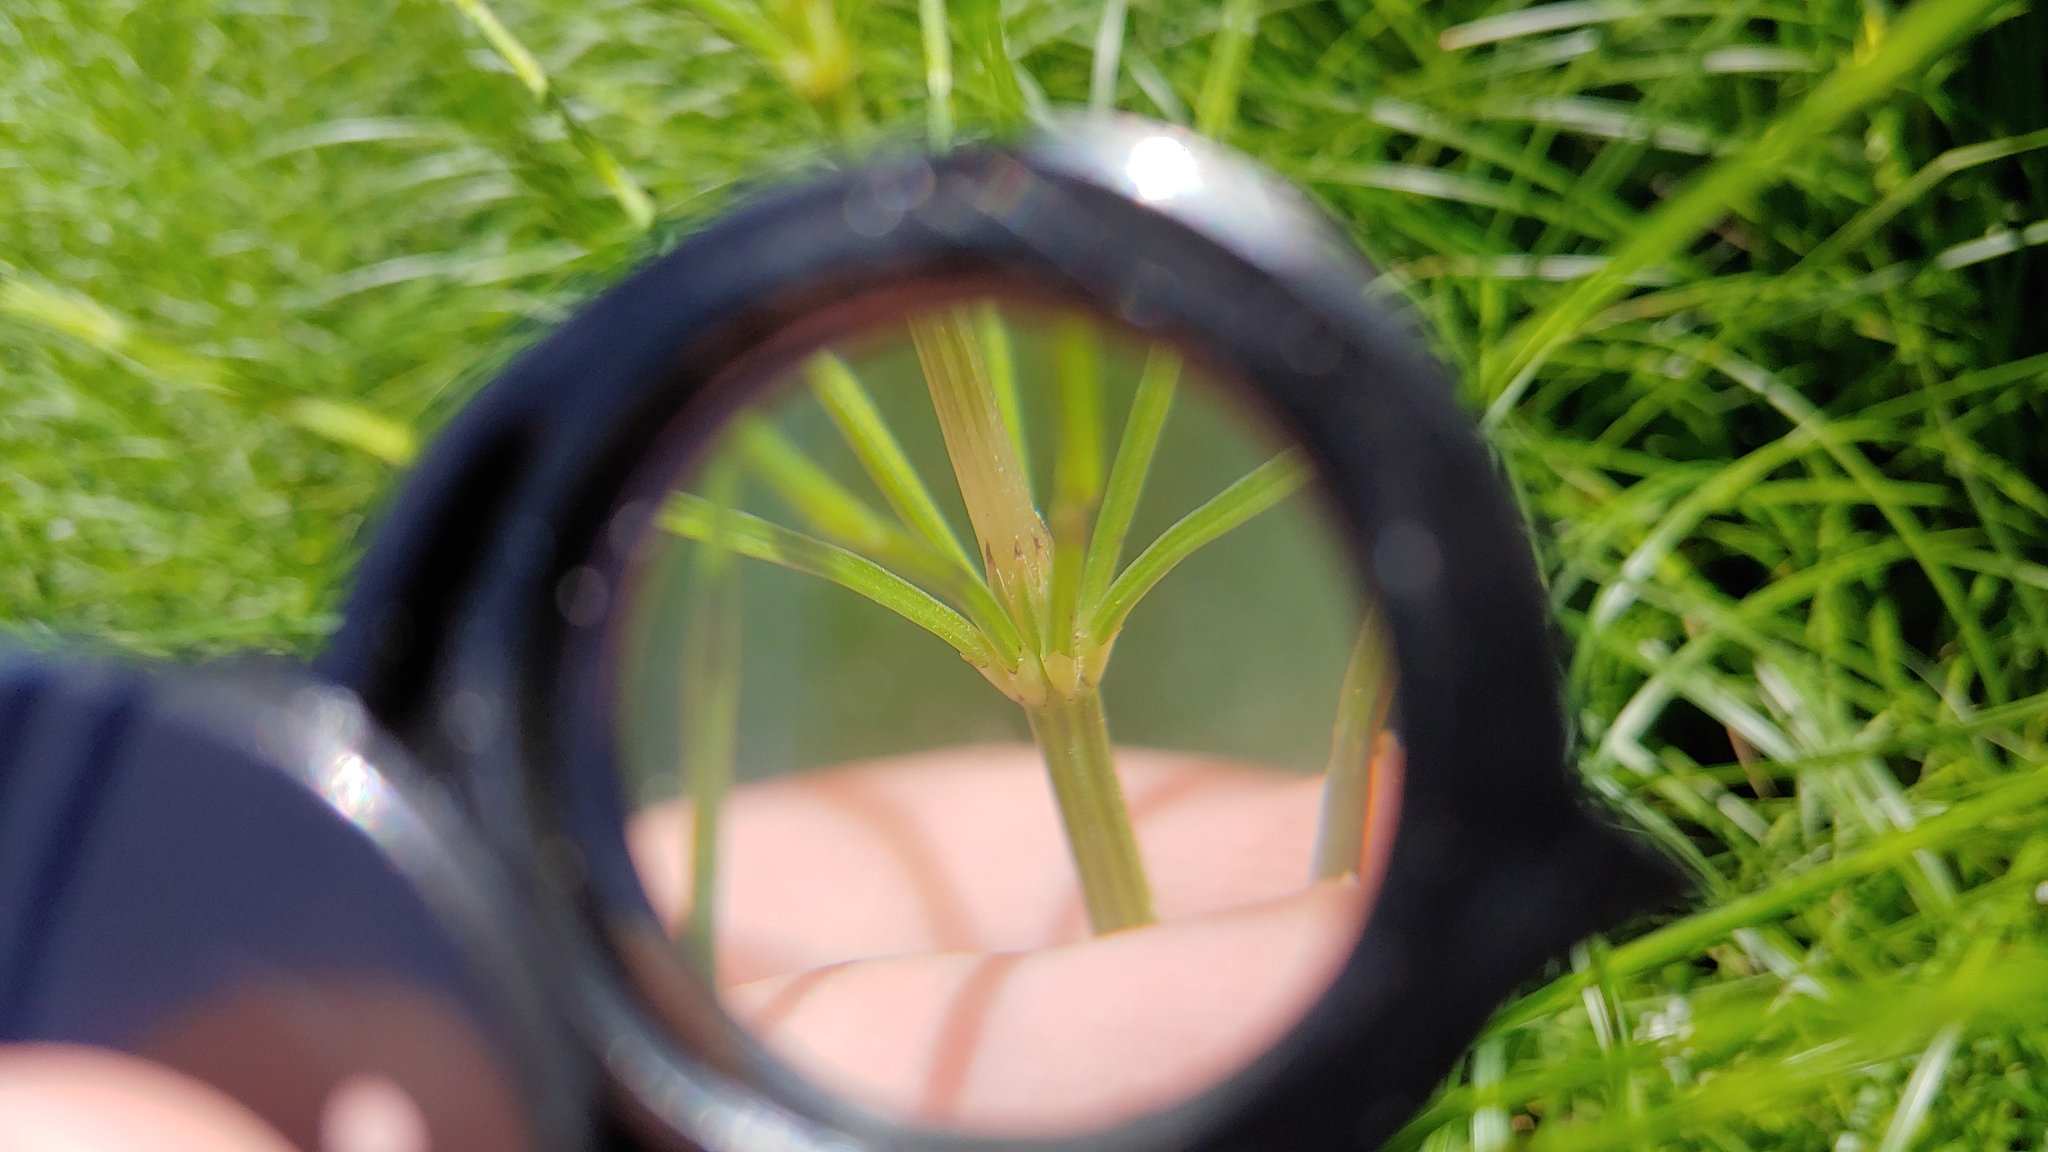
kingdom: Plantae
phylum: Tracheophyta
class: Polypodiopsida
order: Equisetales
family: Equisetaceae
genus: Equisetum
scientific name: Equisetum arvense
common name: Field horsetail
